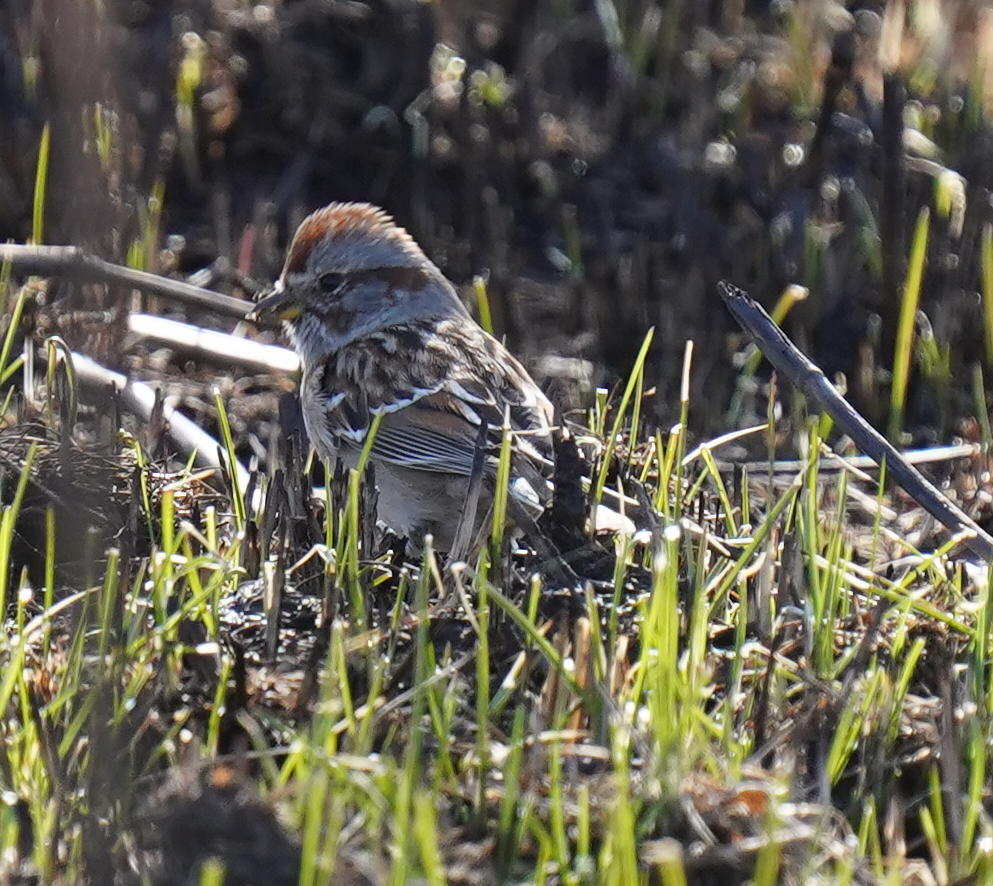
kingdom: Animalia
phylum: Chordata
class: Aves
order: Passeriformes
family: Passerellidae
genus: Spizelloides
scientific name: Spizelloides arborea
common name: American tree sparrow
